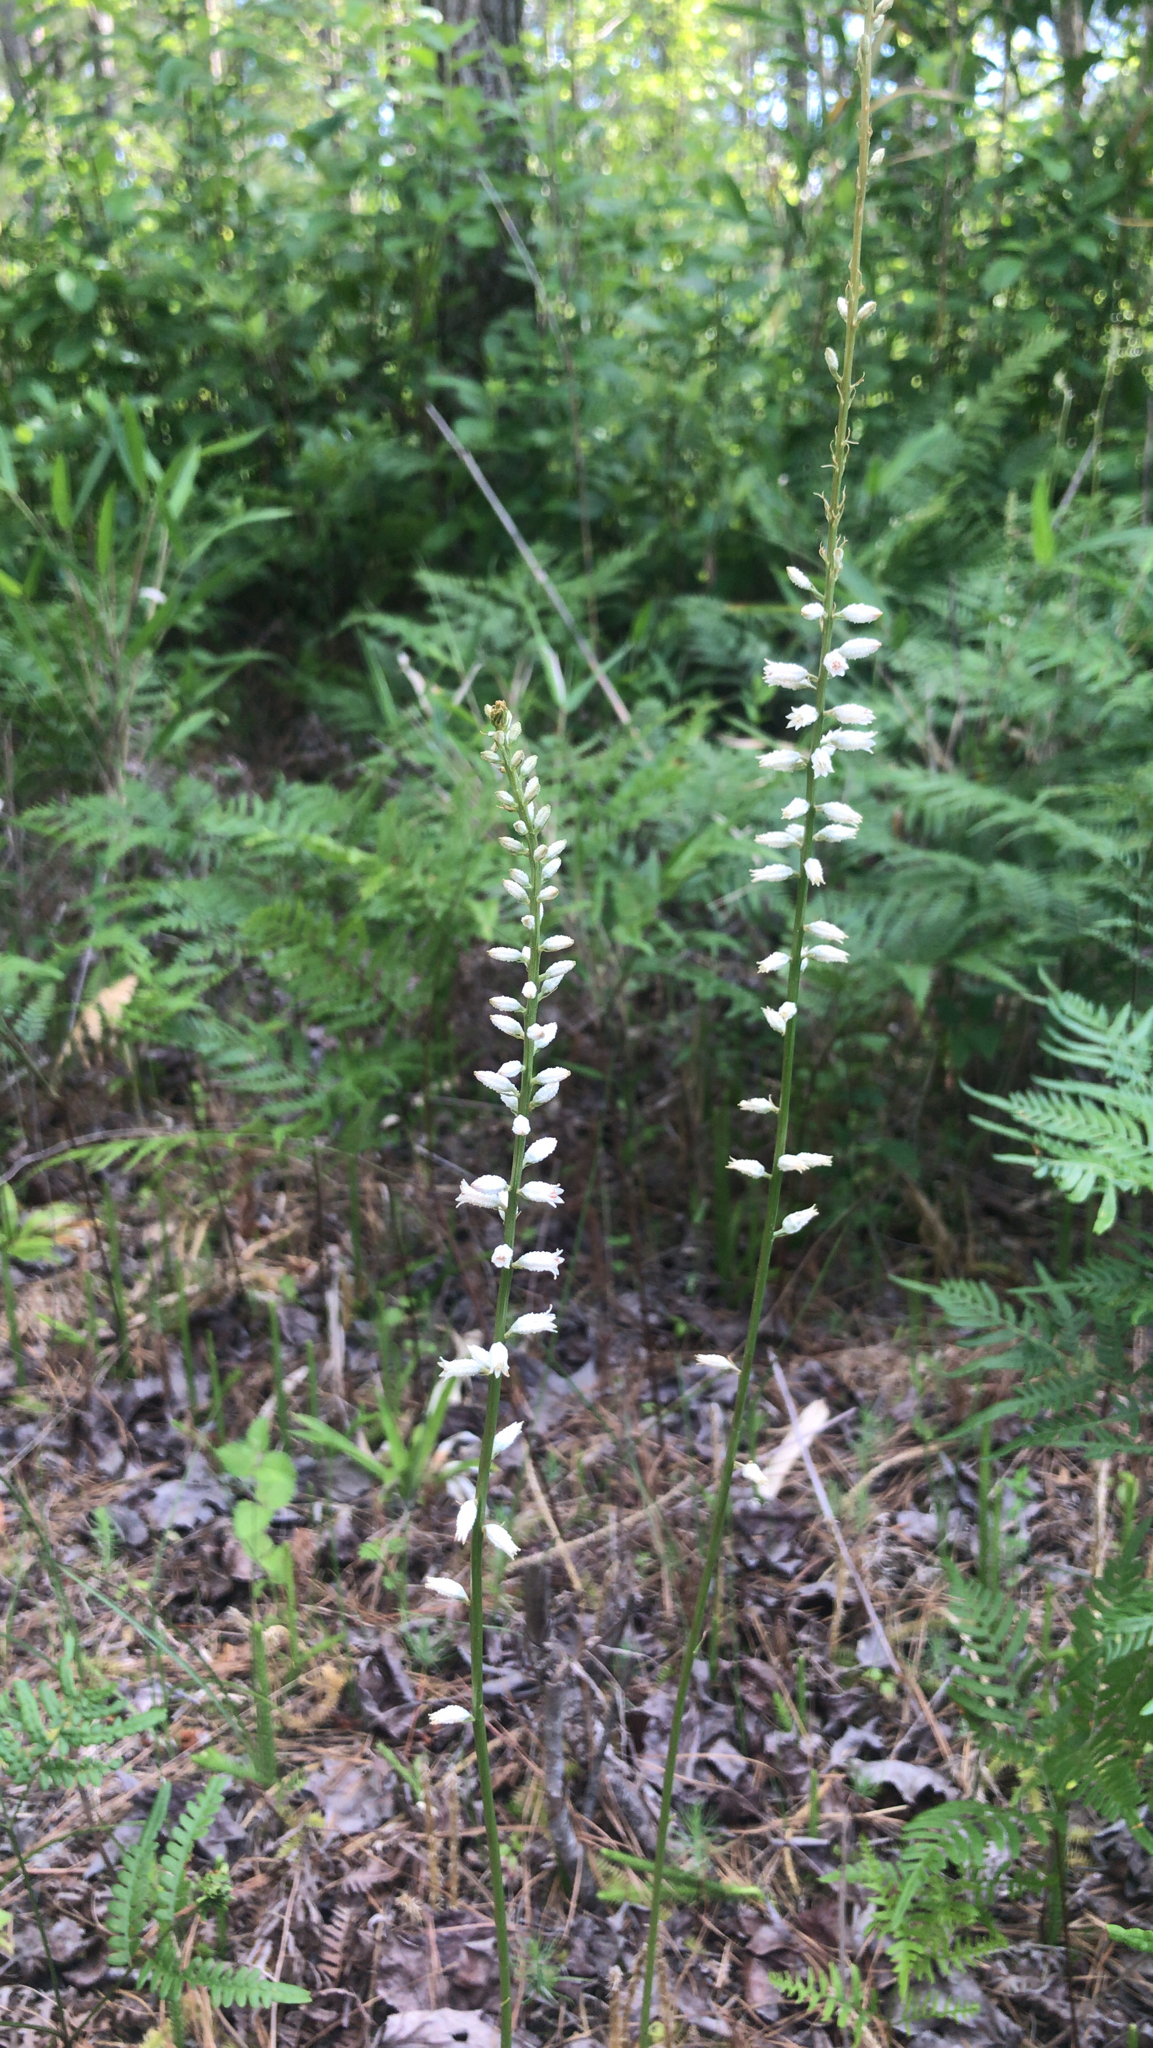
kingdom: Plantae
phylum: Tracheophyta
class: Liliopsida
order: Dioscoreales
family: Nartheciaceae
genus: Aletris
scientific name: Aletris farinosa
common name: Colicroot
